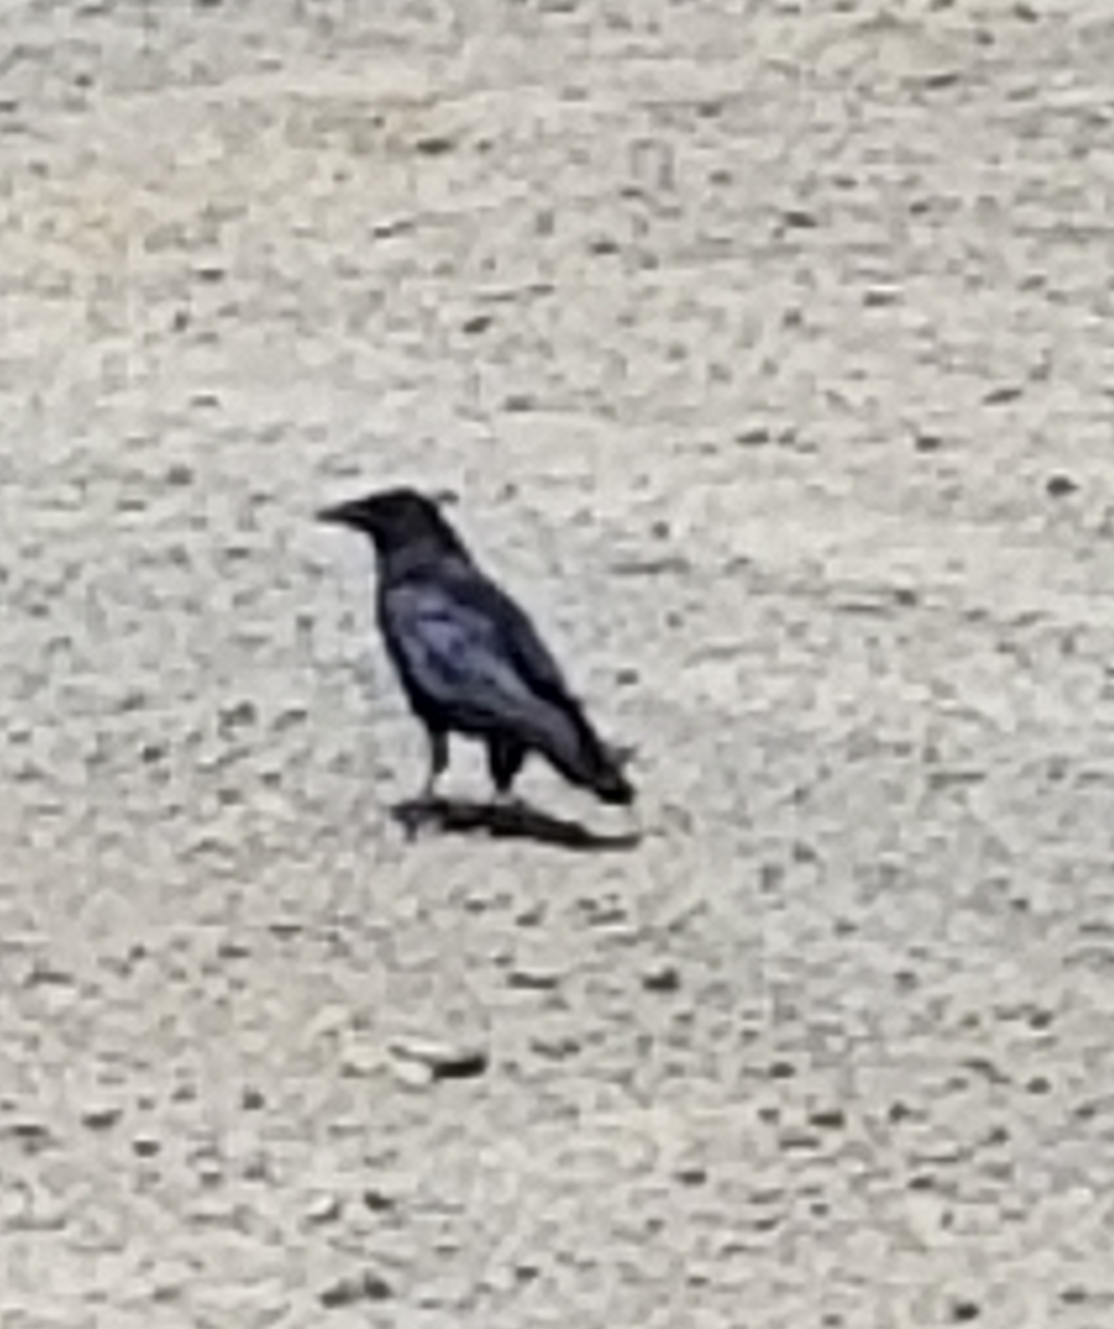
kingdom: Animalia
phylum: Chordata
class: Aves
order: Passeriformes
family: Corvidae
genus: Corvus
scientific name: Corvus brachyrhynchos
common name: American crow
